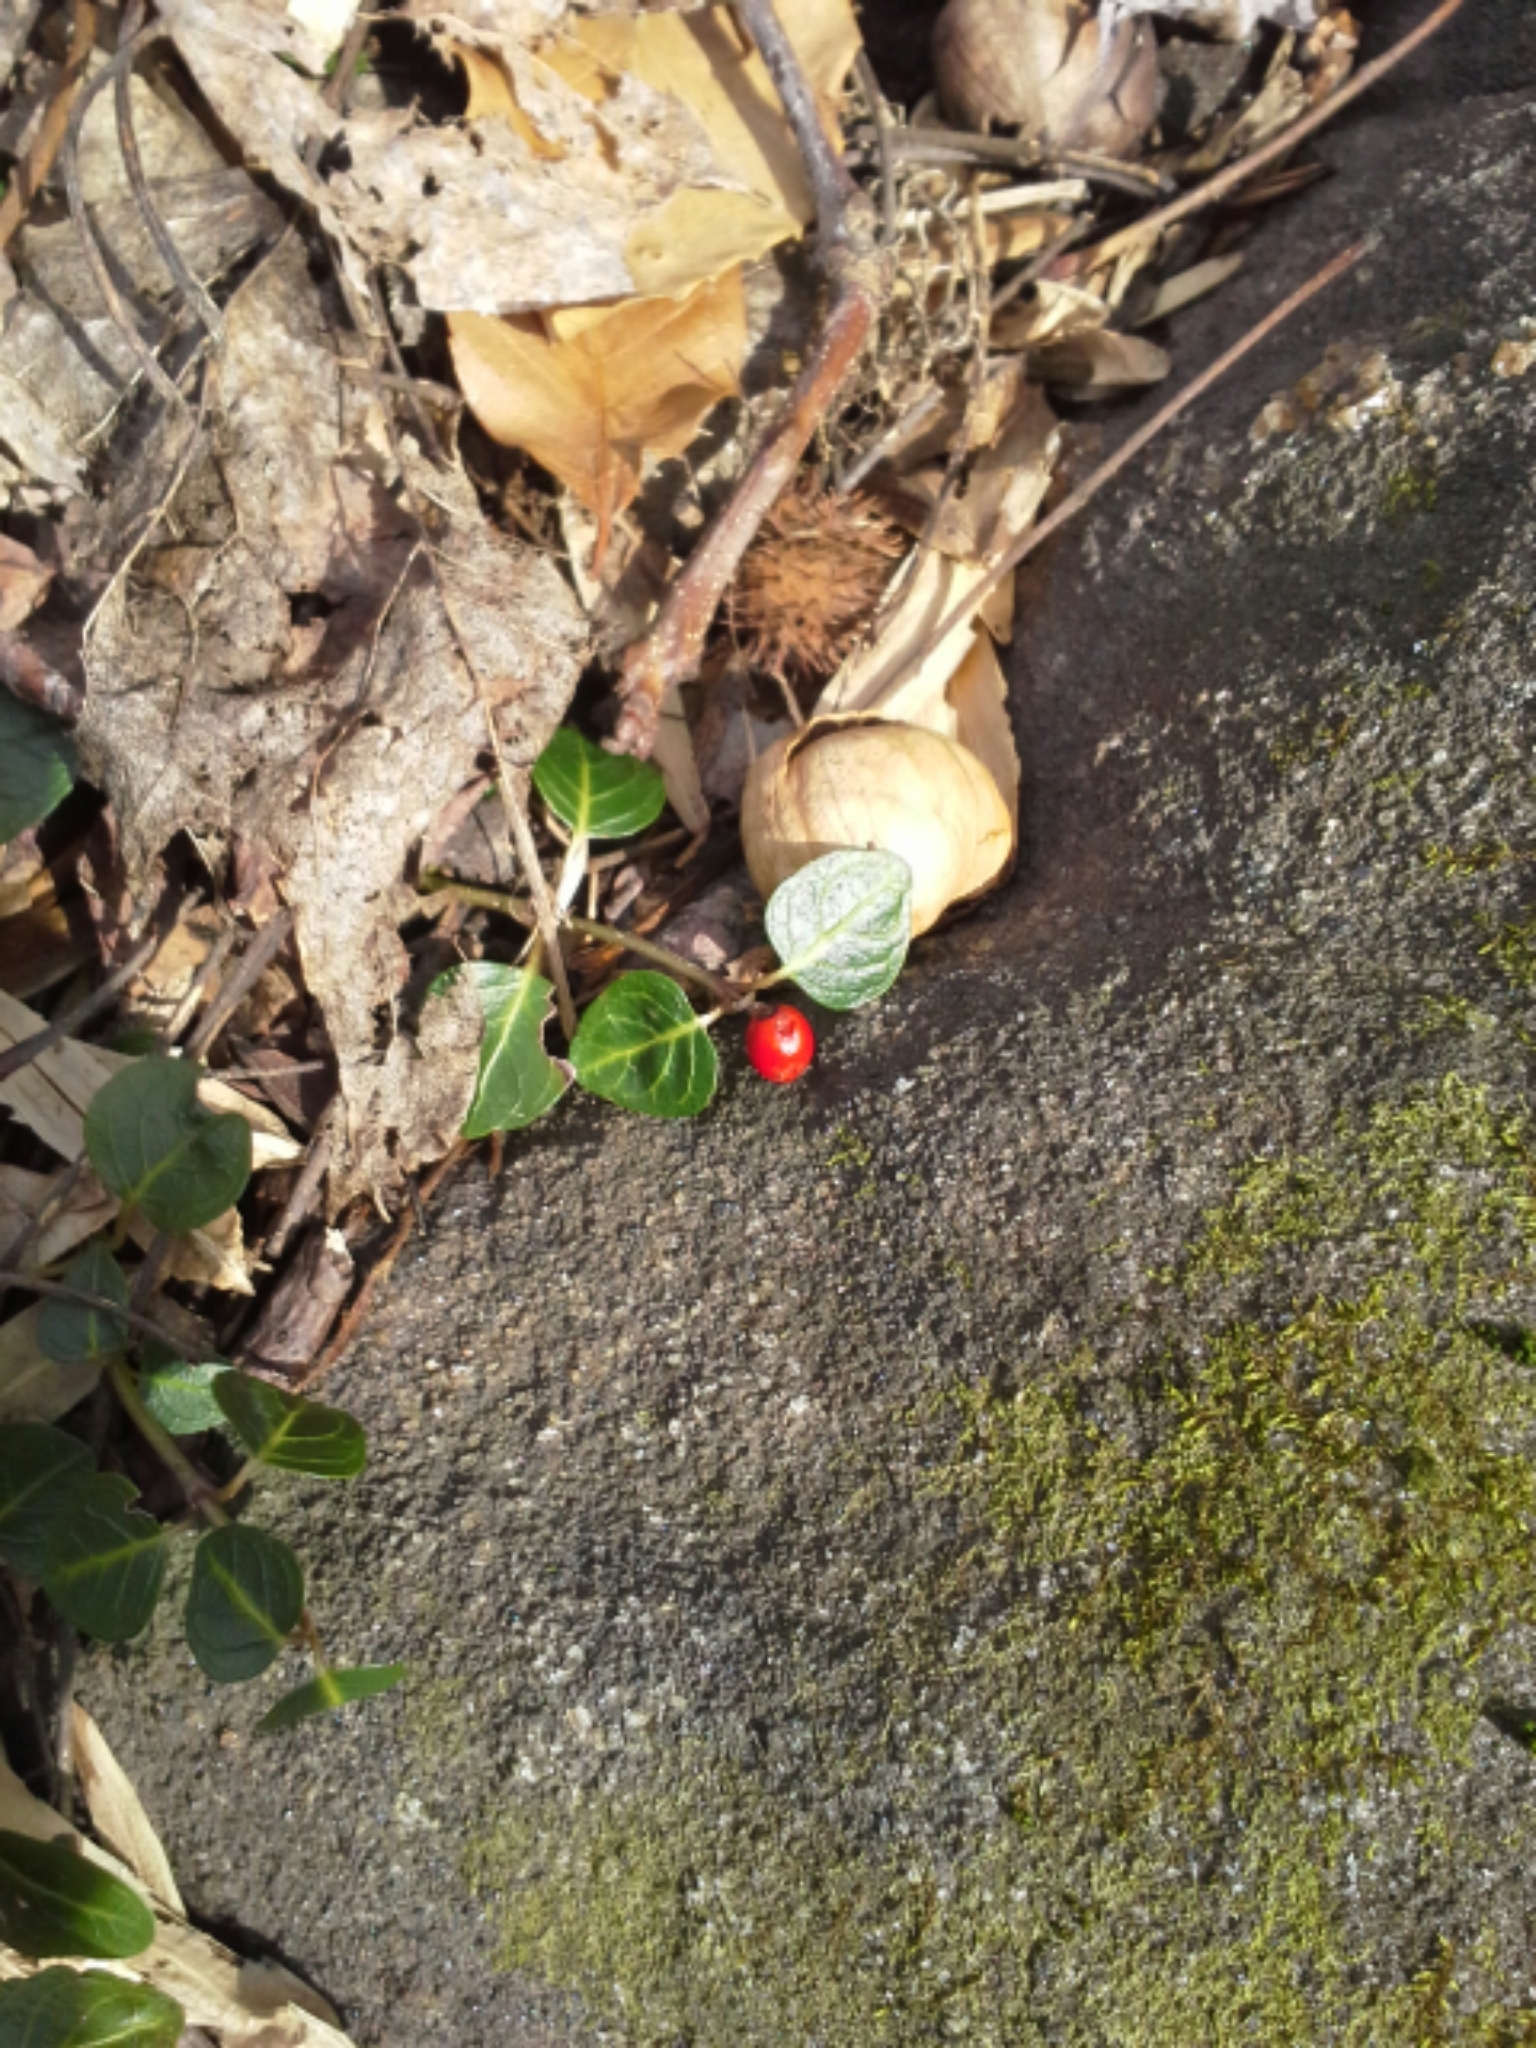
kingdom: Plantae
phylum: Tracheophyta
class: Magnoliopsida
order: Gentianales
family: Rubiaceae
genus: Mitchella
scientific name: Mitchella repens
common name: Partridge-berry
